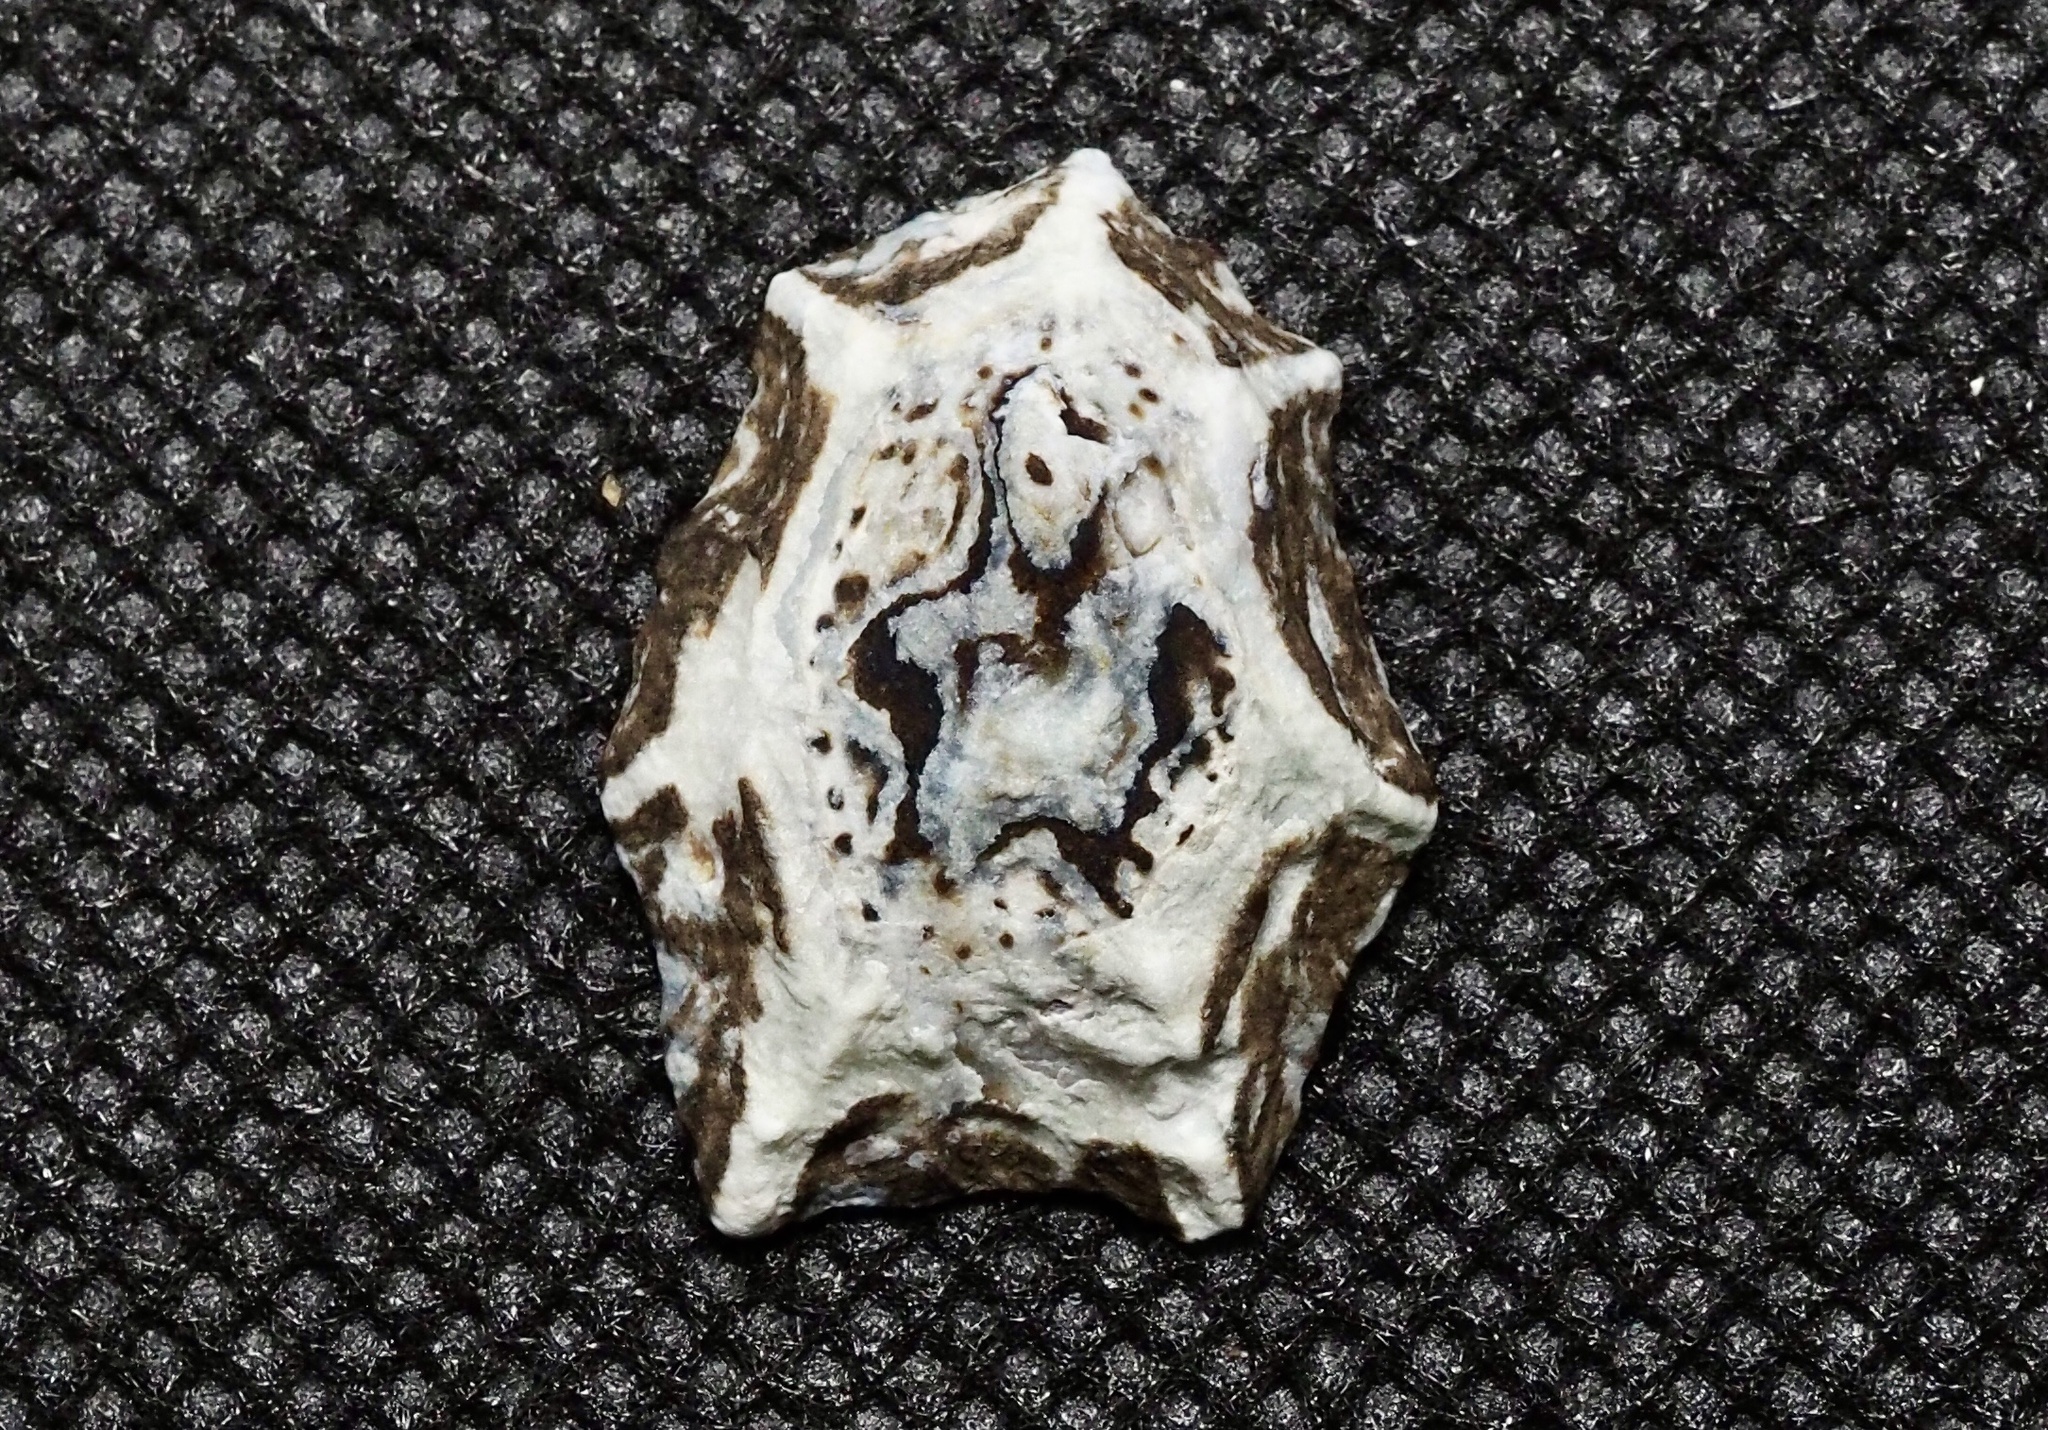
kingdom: Animalia
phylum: Mollusca
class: Gastropoda
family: Lottiidae
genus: Patelloida
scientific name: Patelloida saccharina
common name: Pacific sugar limpet
